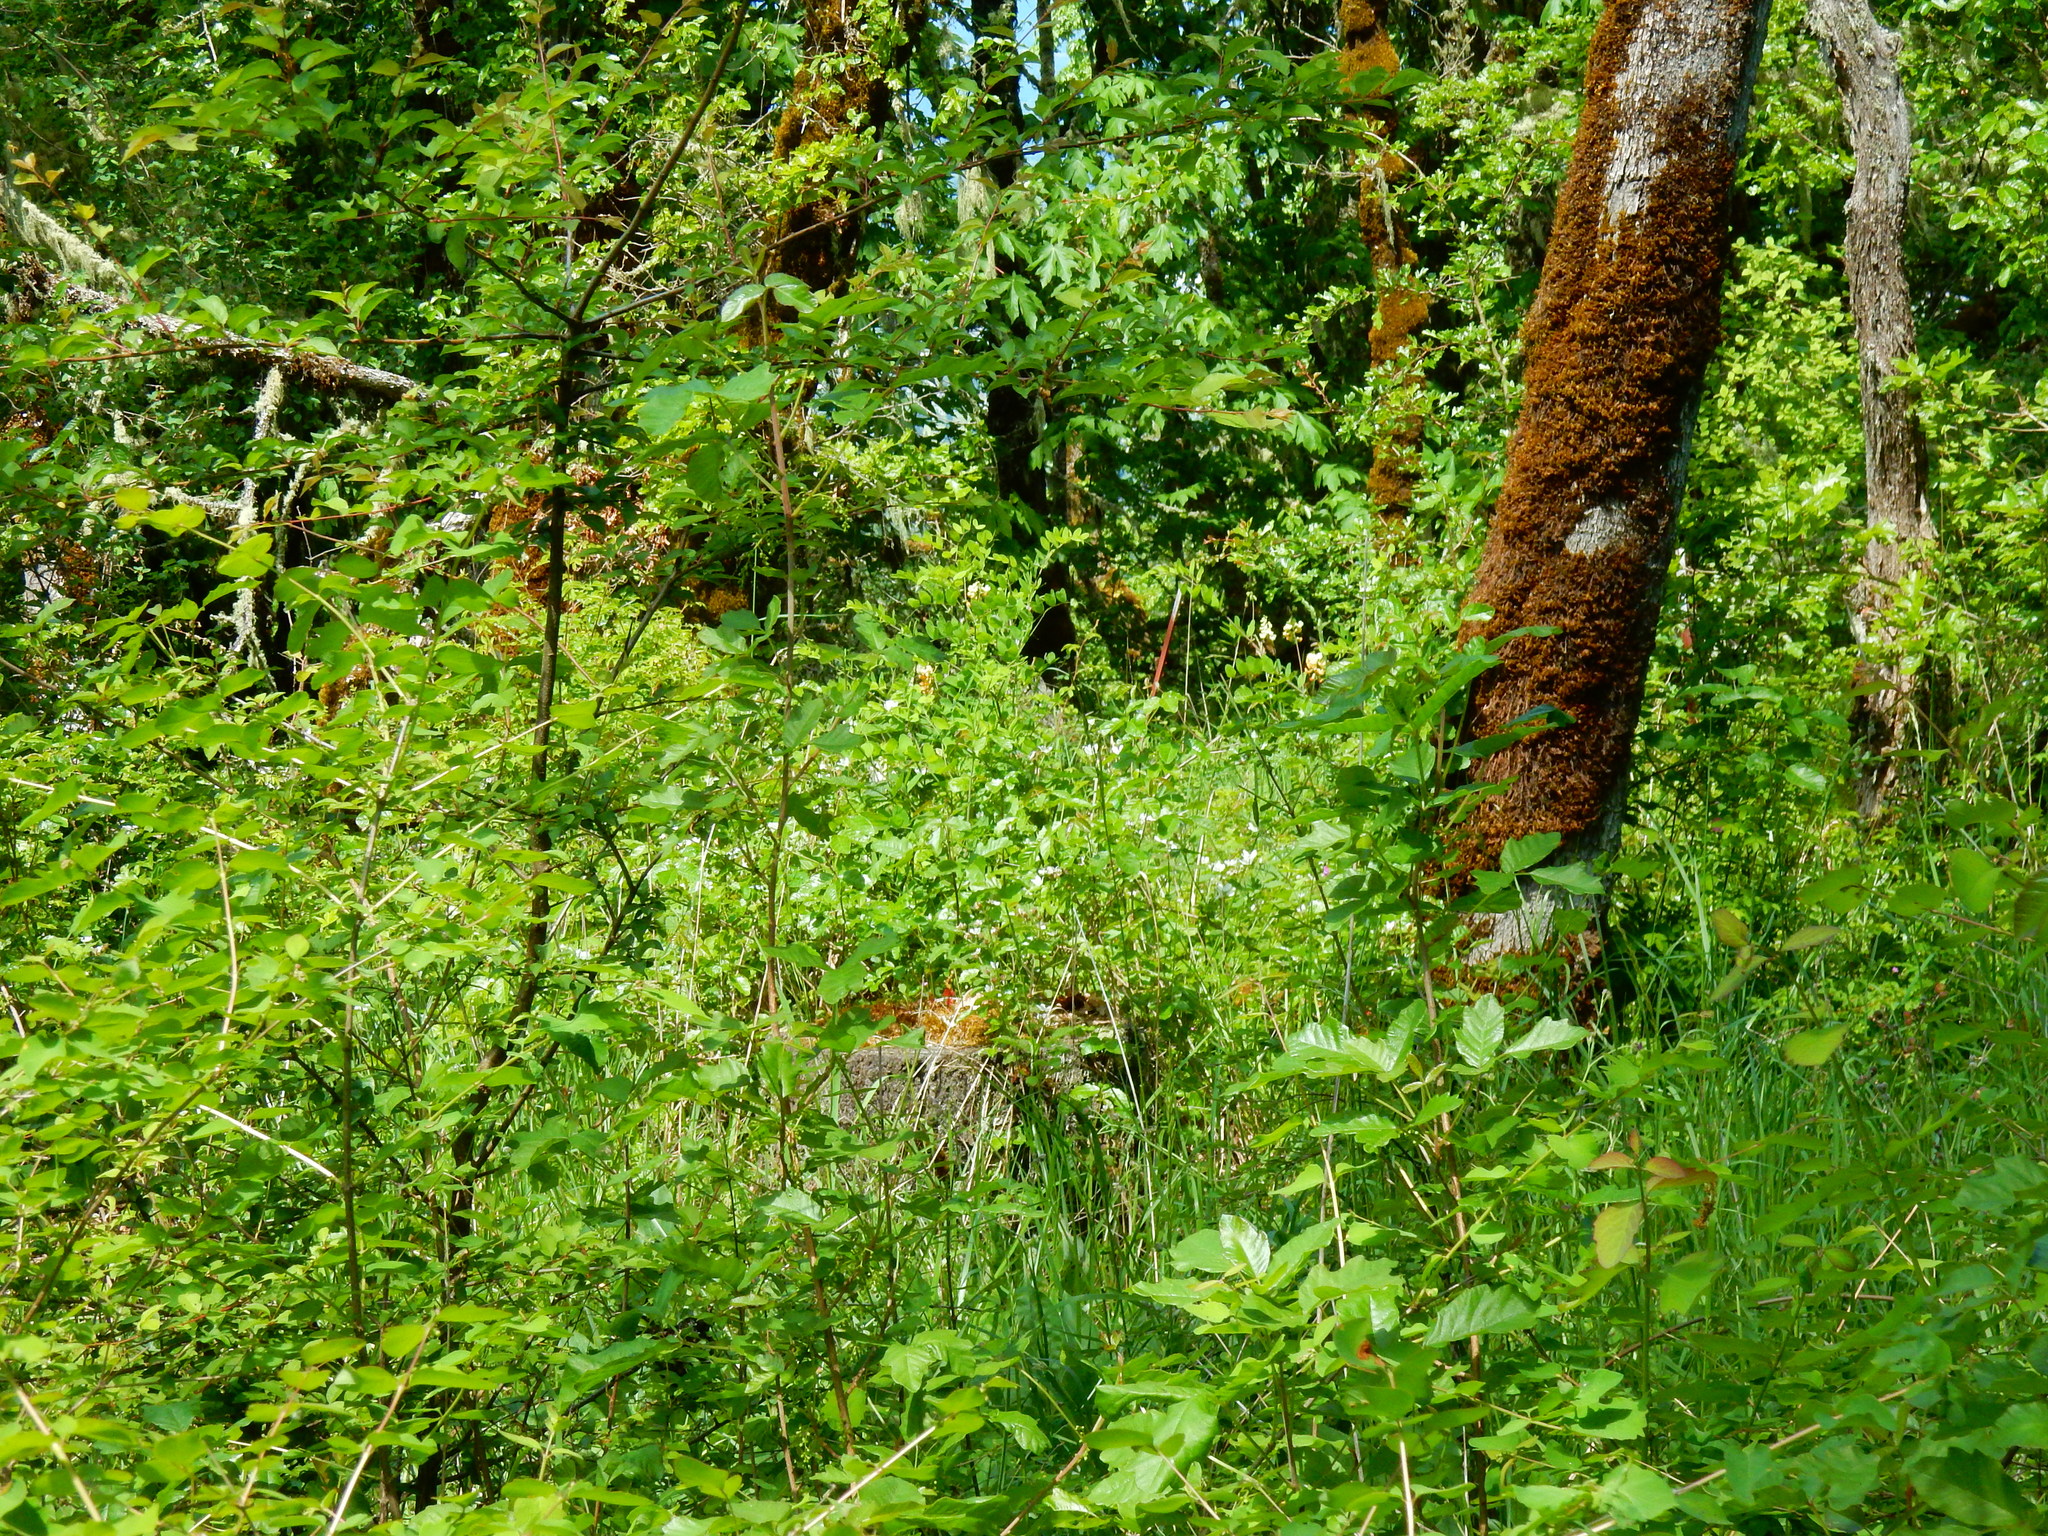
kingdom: Plantae
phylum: Tracheophyta
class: Magnoliopsida
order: Fabales
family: Fabaceae
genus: Lathyrus
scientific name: Lathyrus holochlorus
